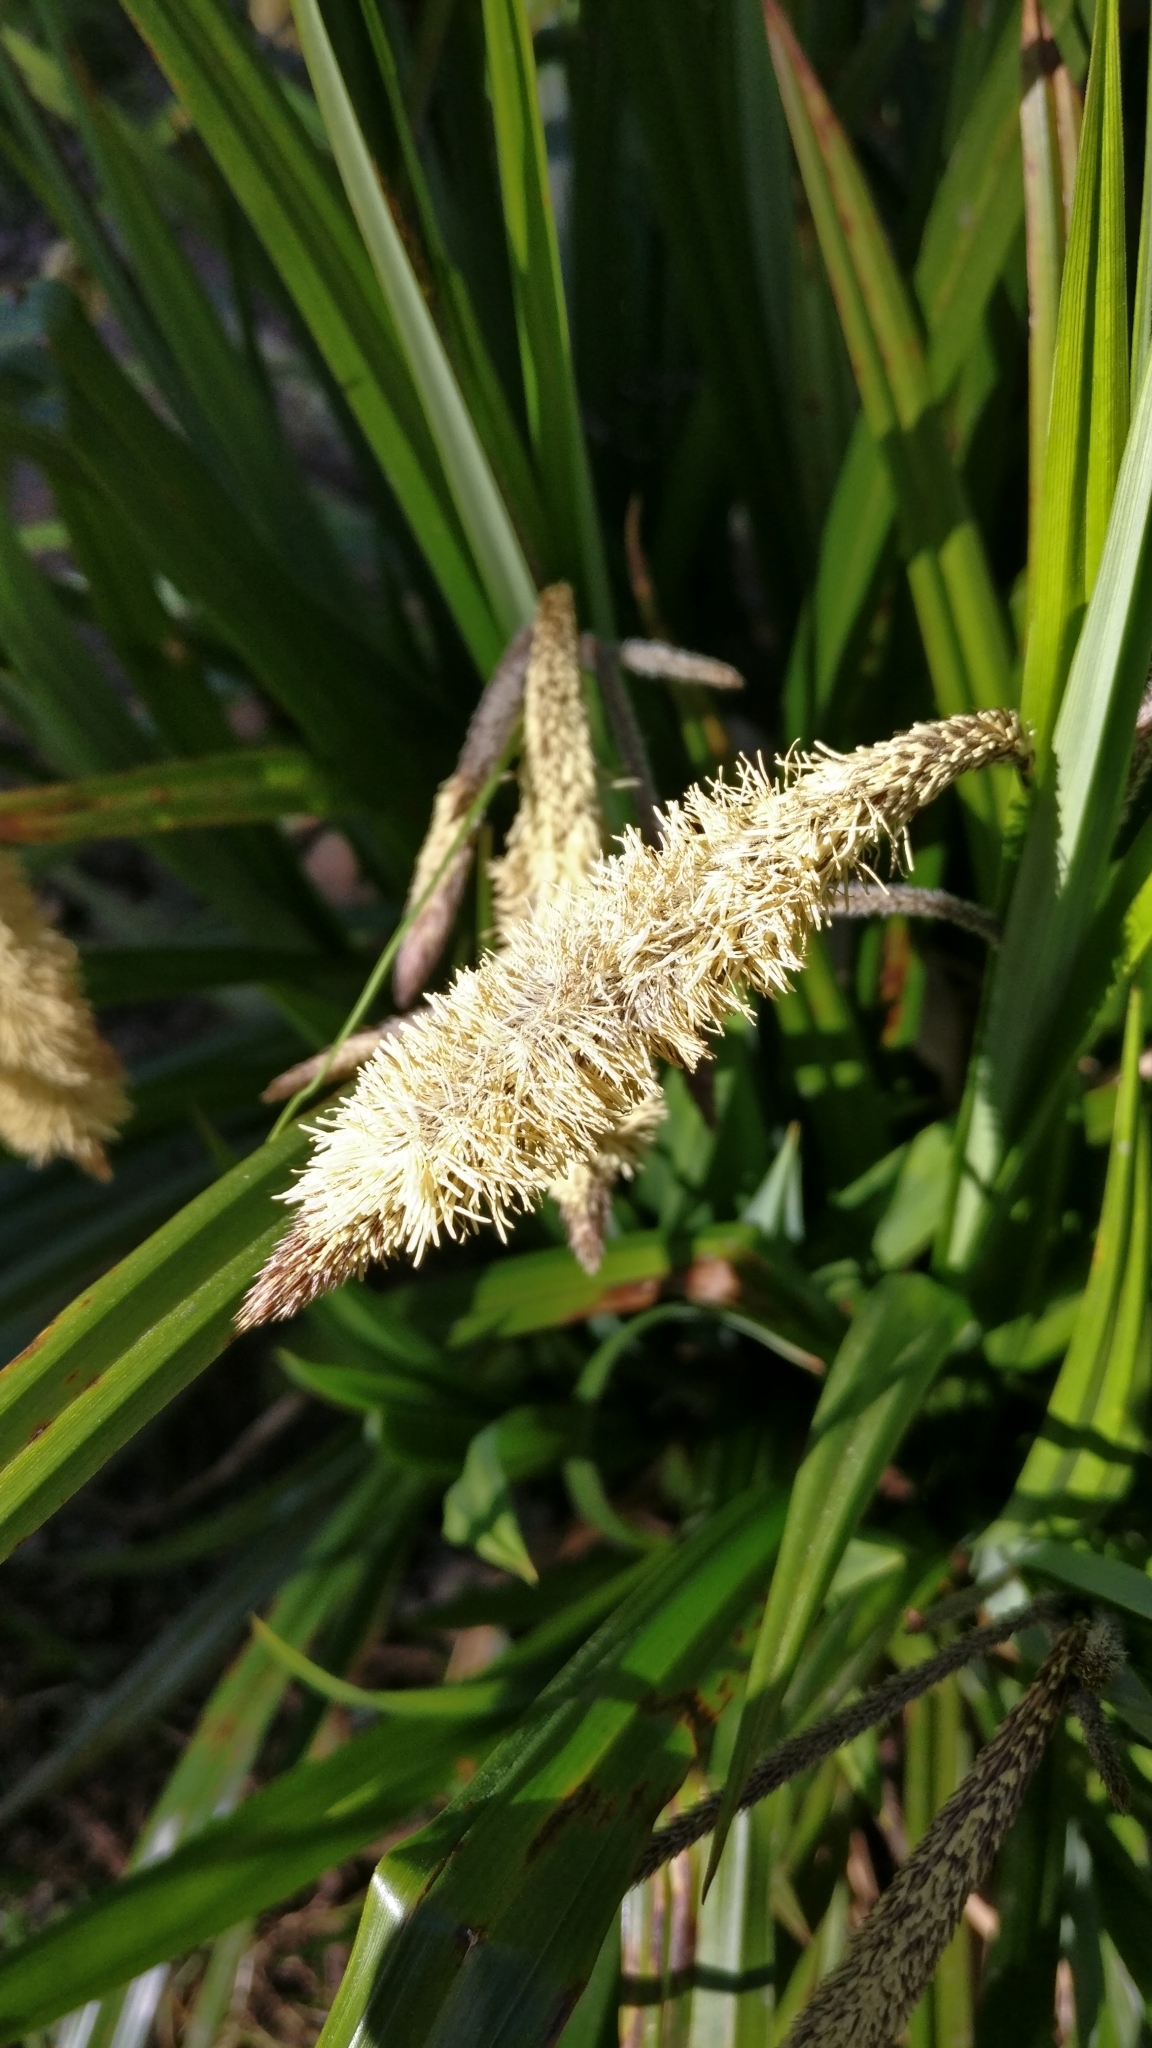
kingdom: Plantae
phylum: Tracheophyta
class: Liliopsida
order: Poales
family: Cyperaceae
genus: Carex
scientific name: Carex pendula
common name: Pendulous sedge
